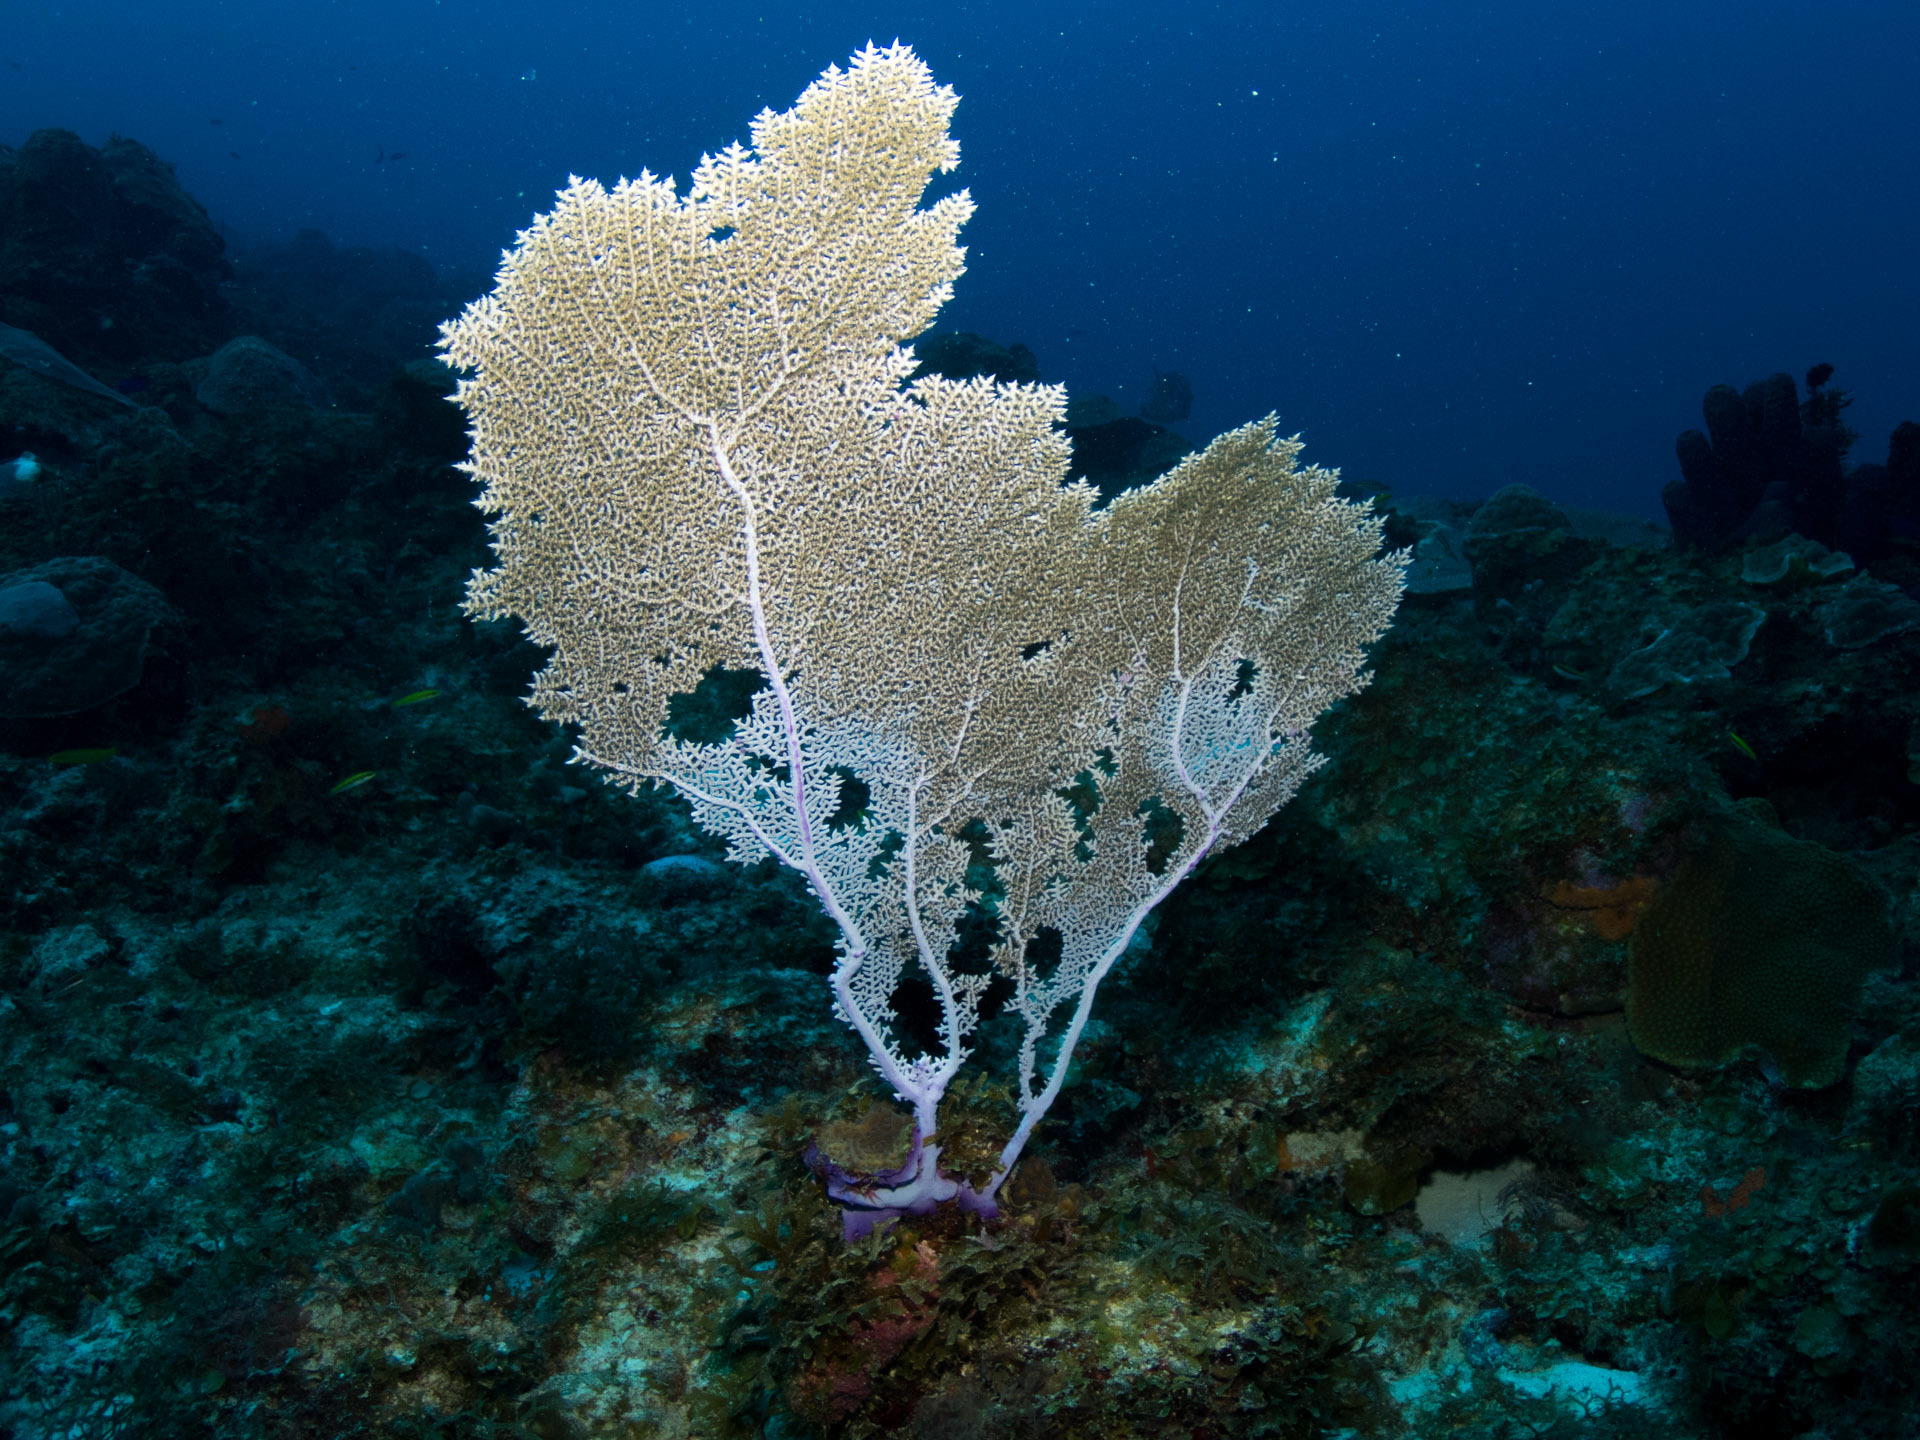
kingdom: Animalia
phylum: Cnidaria
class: Anthozoa
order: Malacalcyonacea
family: Gorgoniidae
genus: Gorgonia
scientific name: Gorgonia ventalina
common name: Common sea fan
